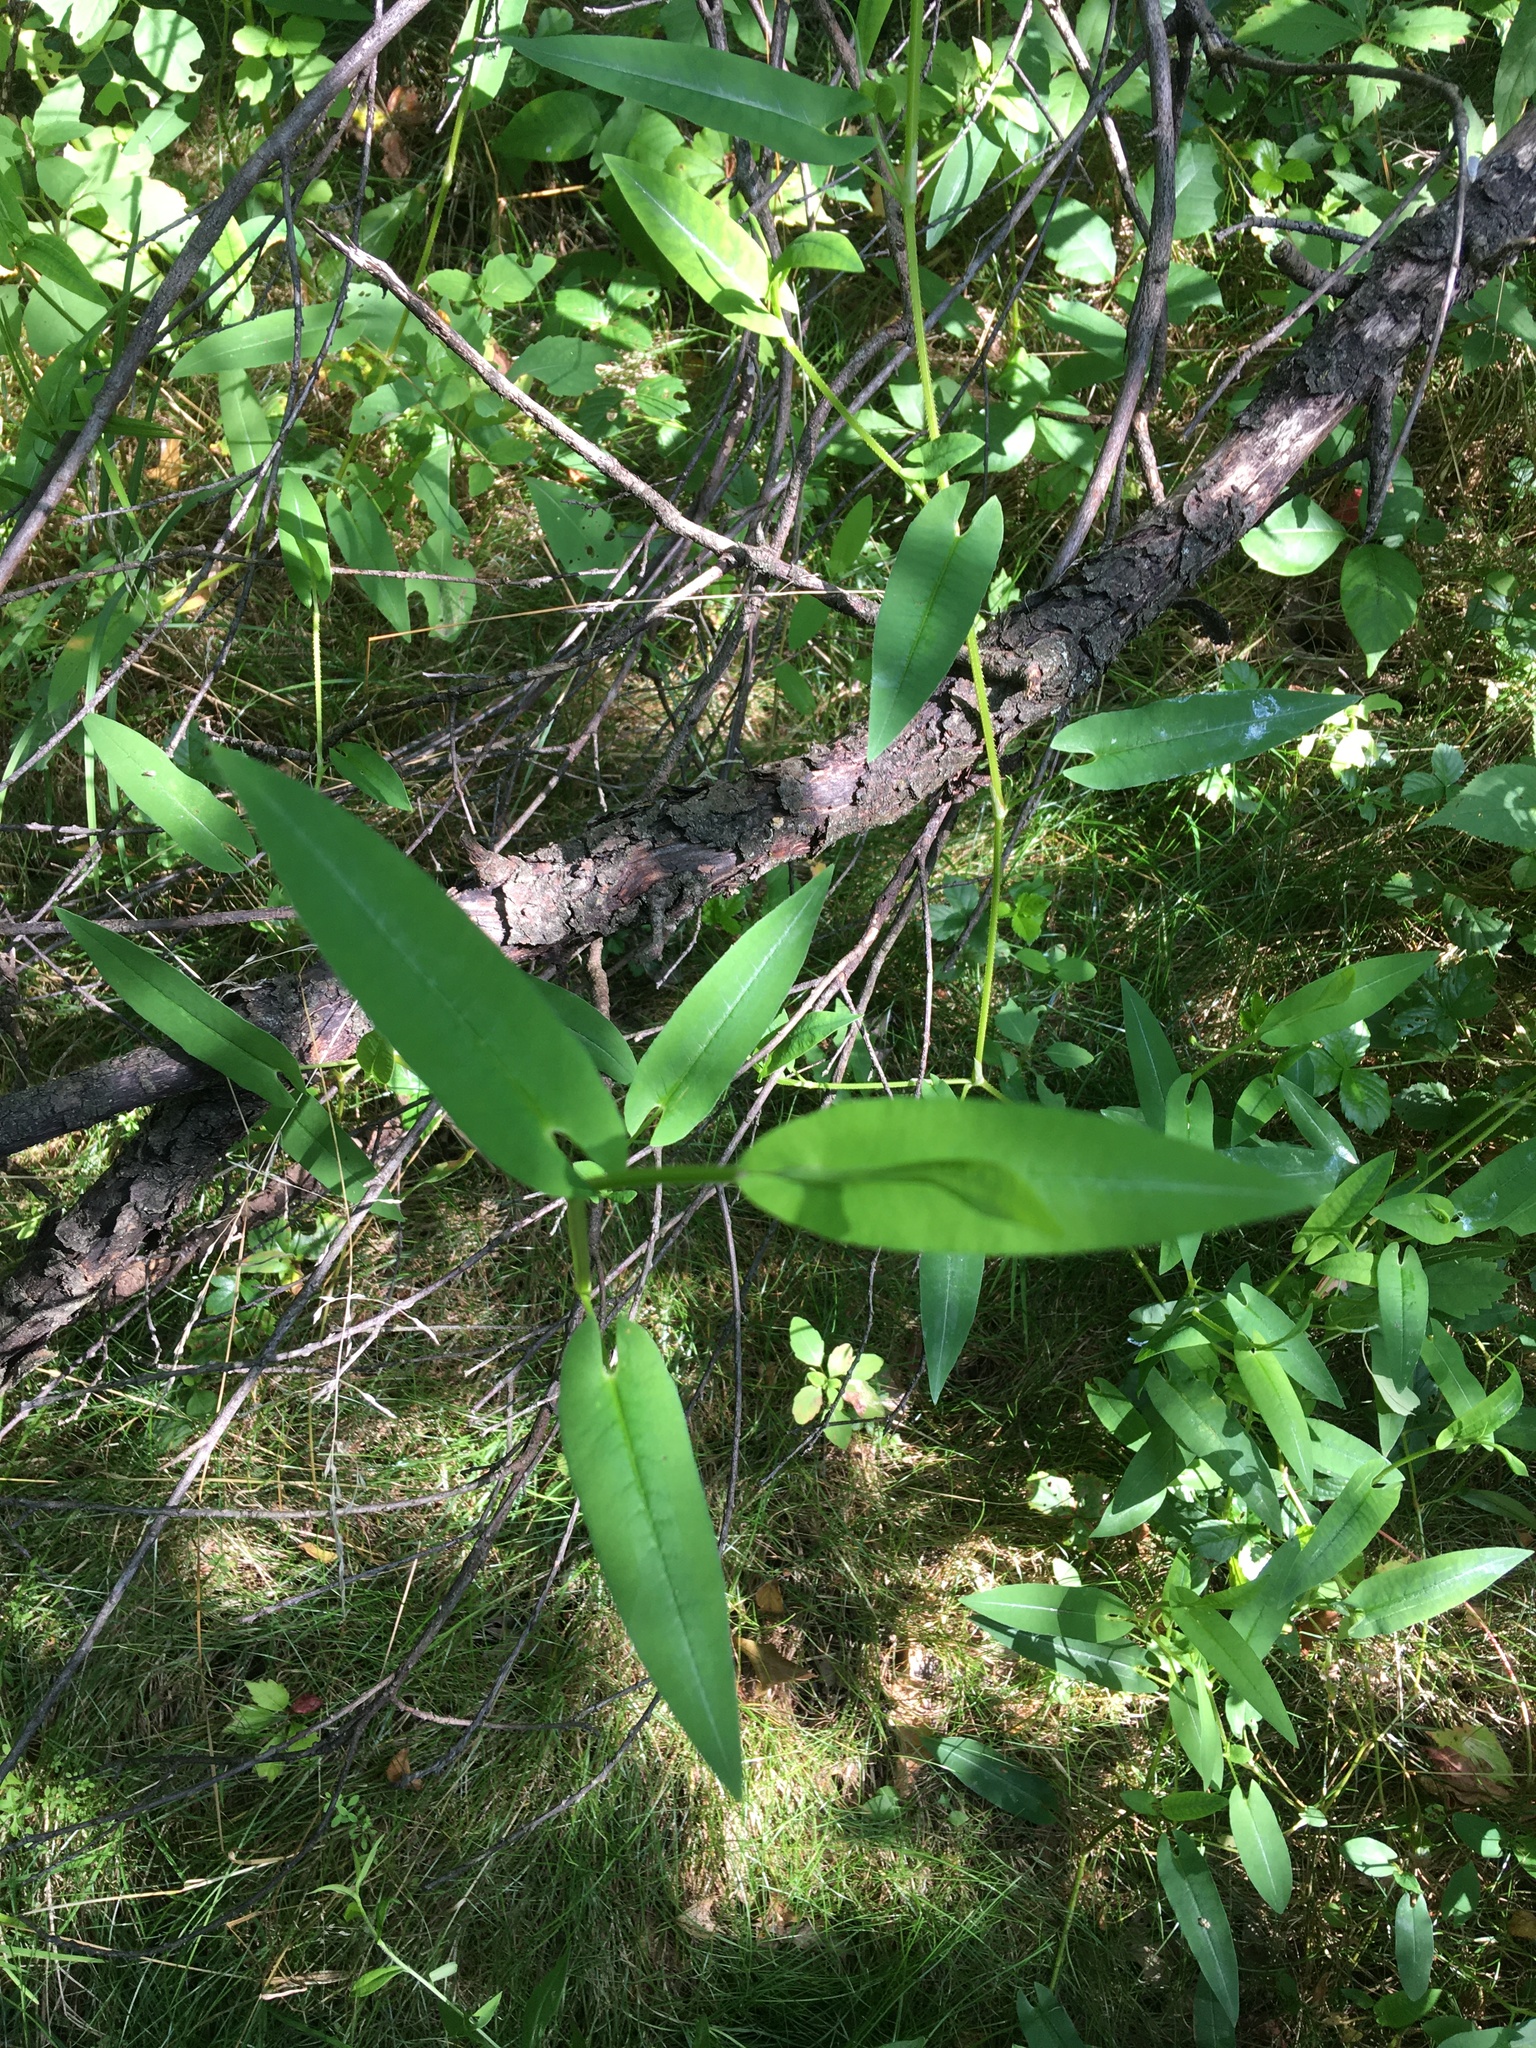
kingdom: Plantae
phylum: Tracheophyta
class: Magnoliopsida
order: Caryophyllales
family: Polygonaceae
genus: Persicaria
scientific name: Persicaria sagittata
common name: American tearthumb
